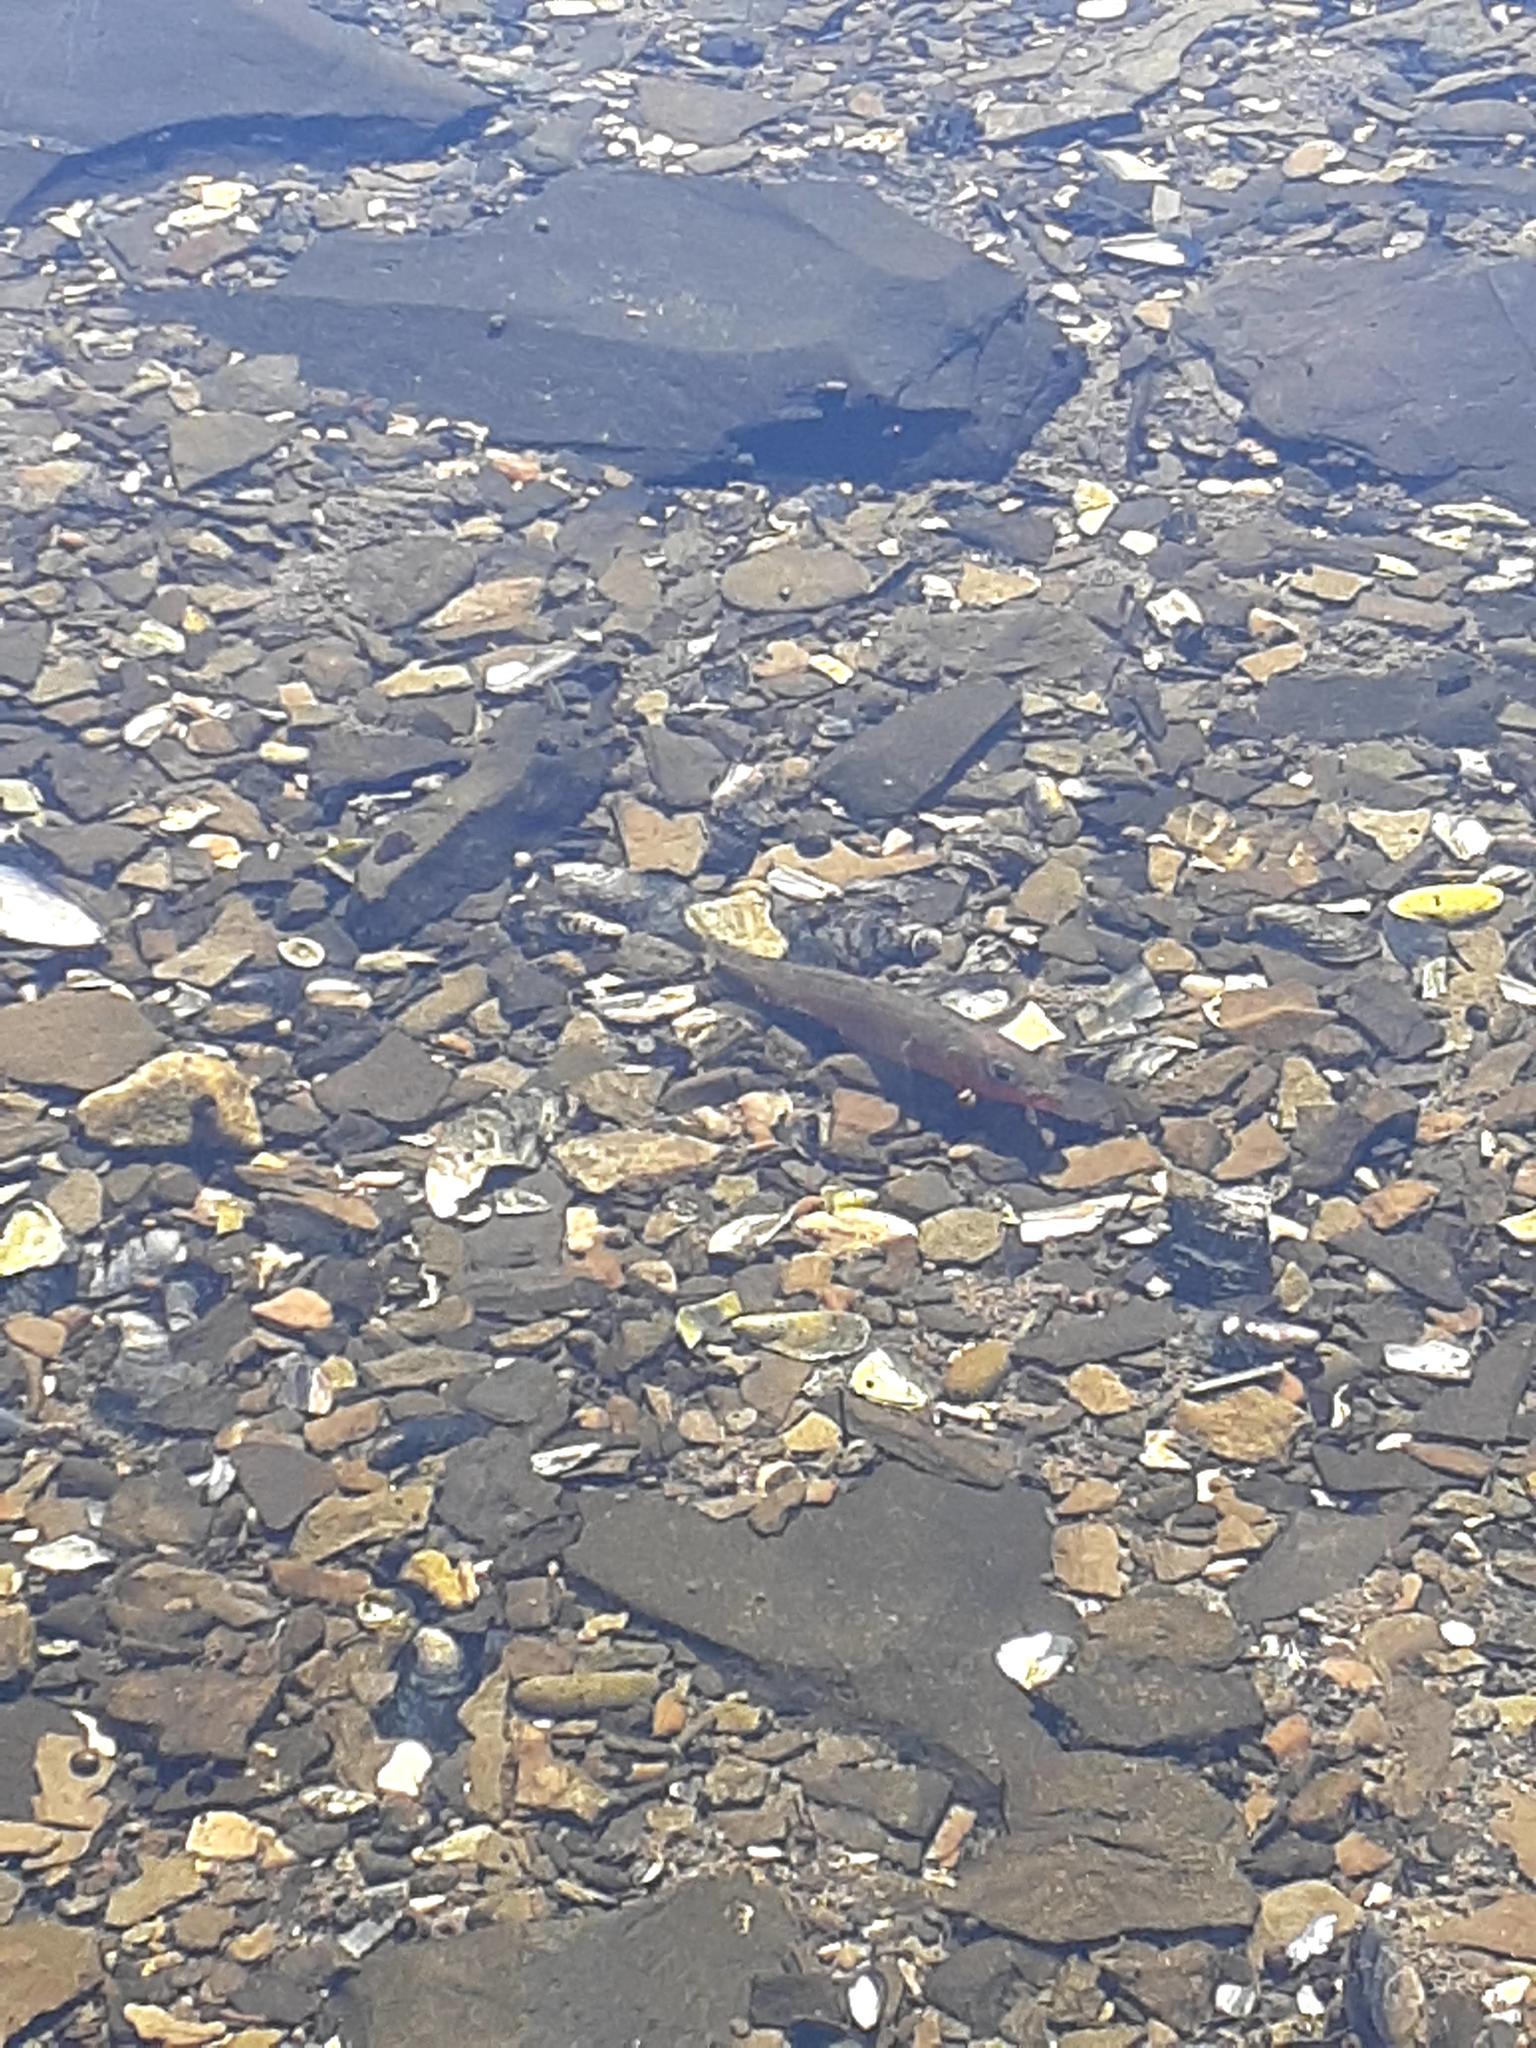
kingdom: Animalia
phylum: Chordata
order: Gasterosteiformes
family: Gasterosteidae
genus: Gasterosteus
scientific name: Gasterosteus aculeatus
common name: Three-spined stickleback
